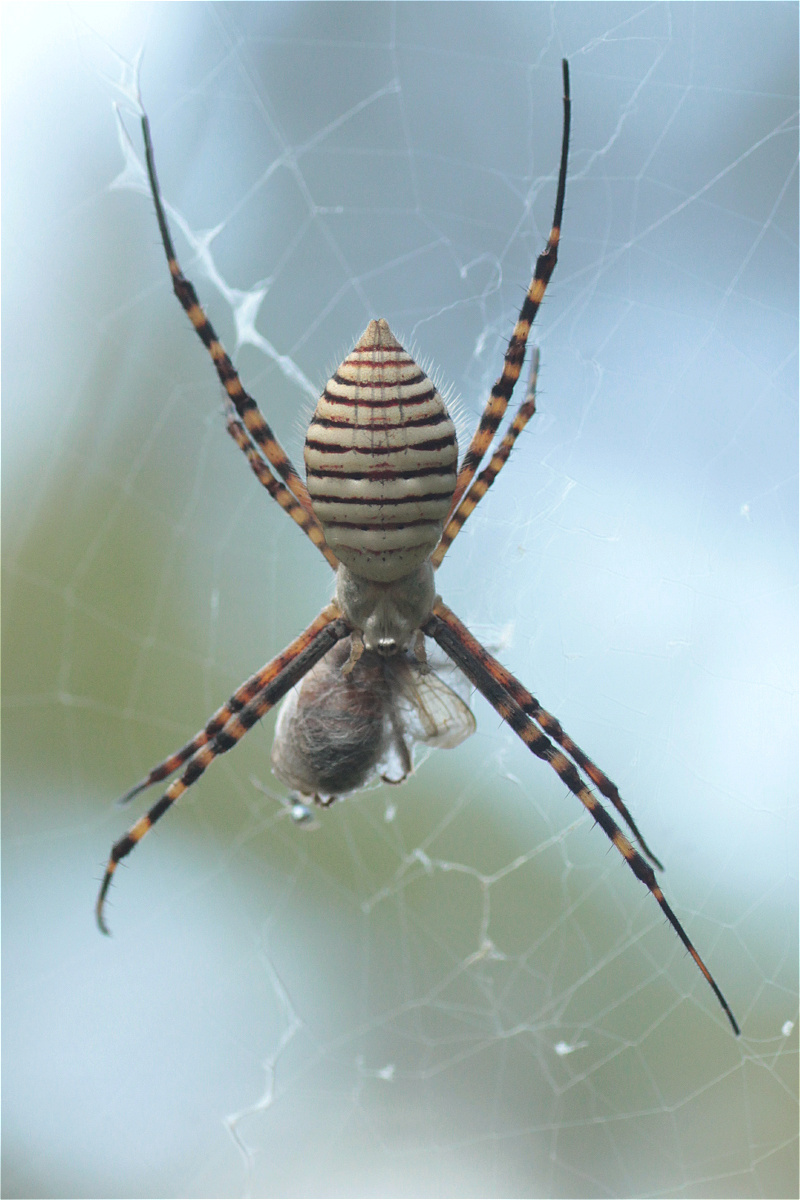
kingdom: Animalia
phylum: Arthropoda
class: Arachnida
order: Araneae
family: Araneidae
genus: Argiope
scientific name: Argiope trifasciata
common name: Banded garden spider
